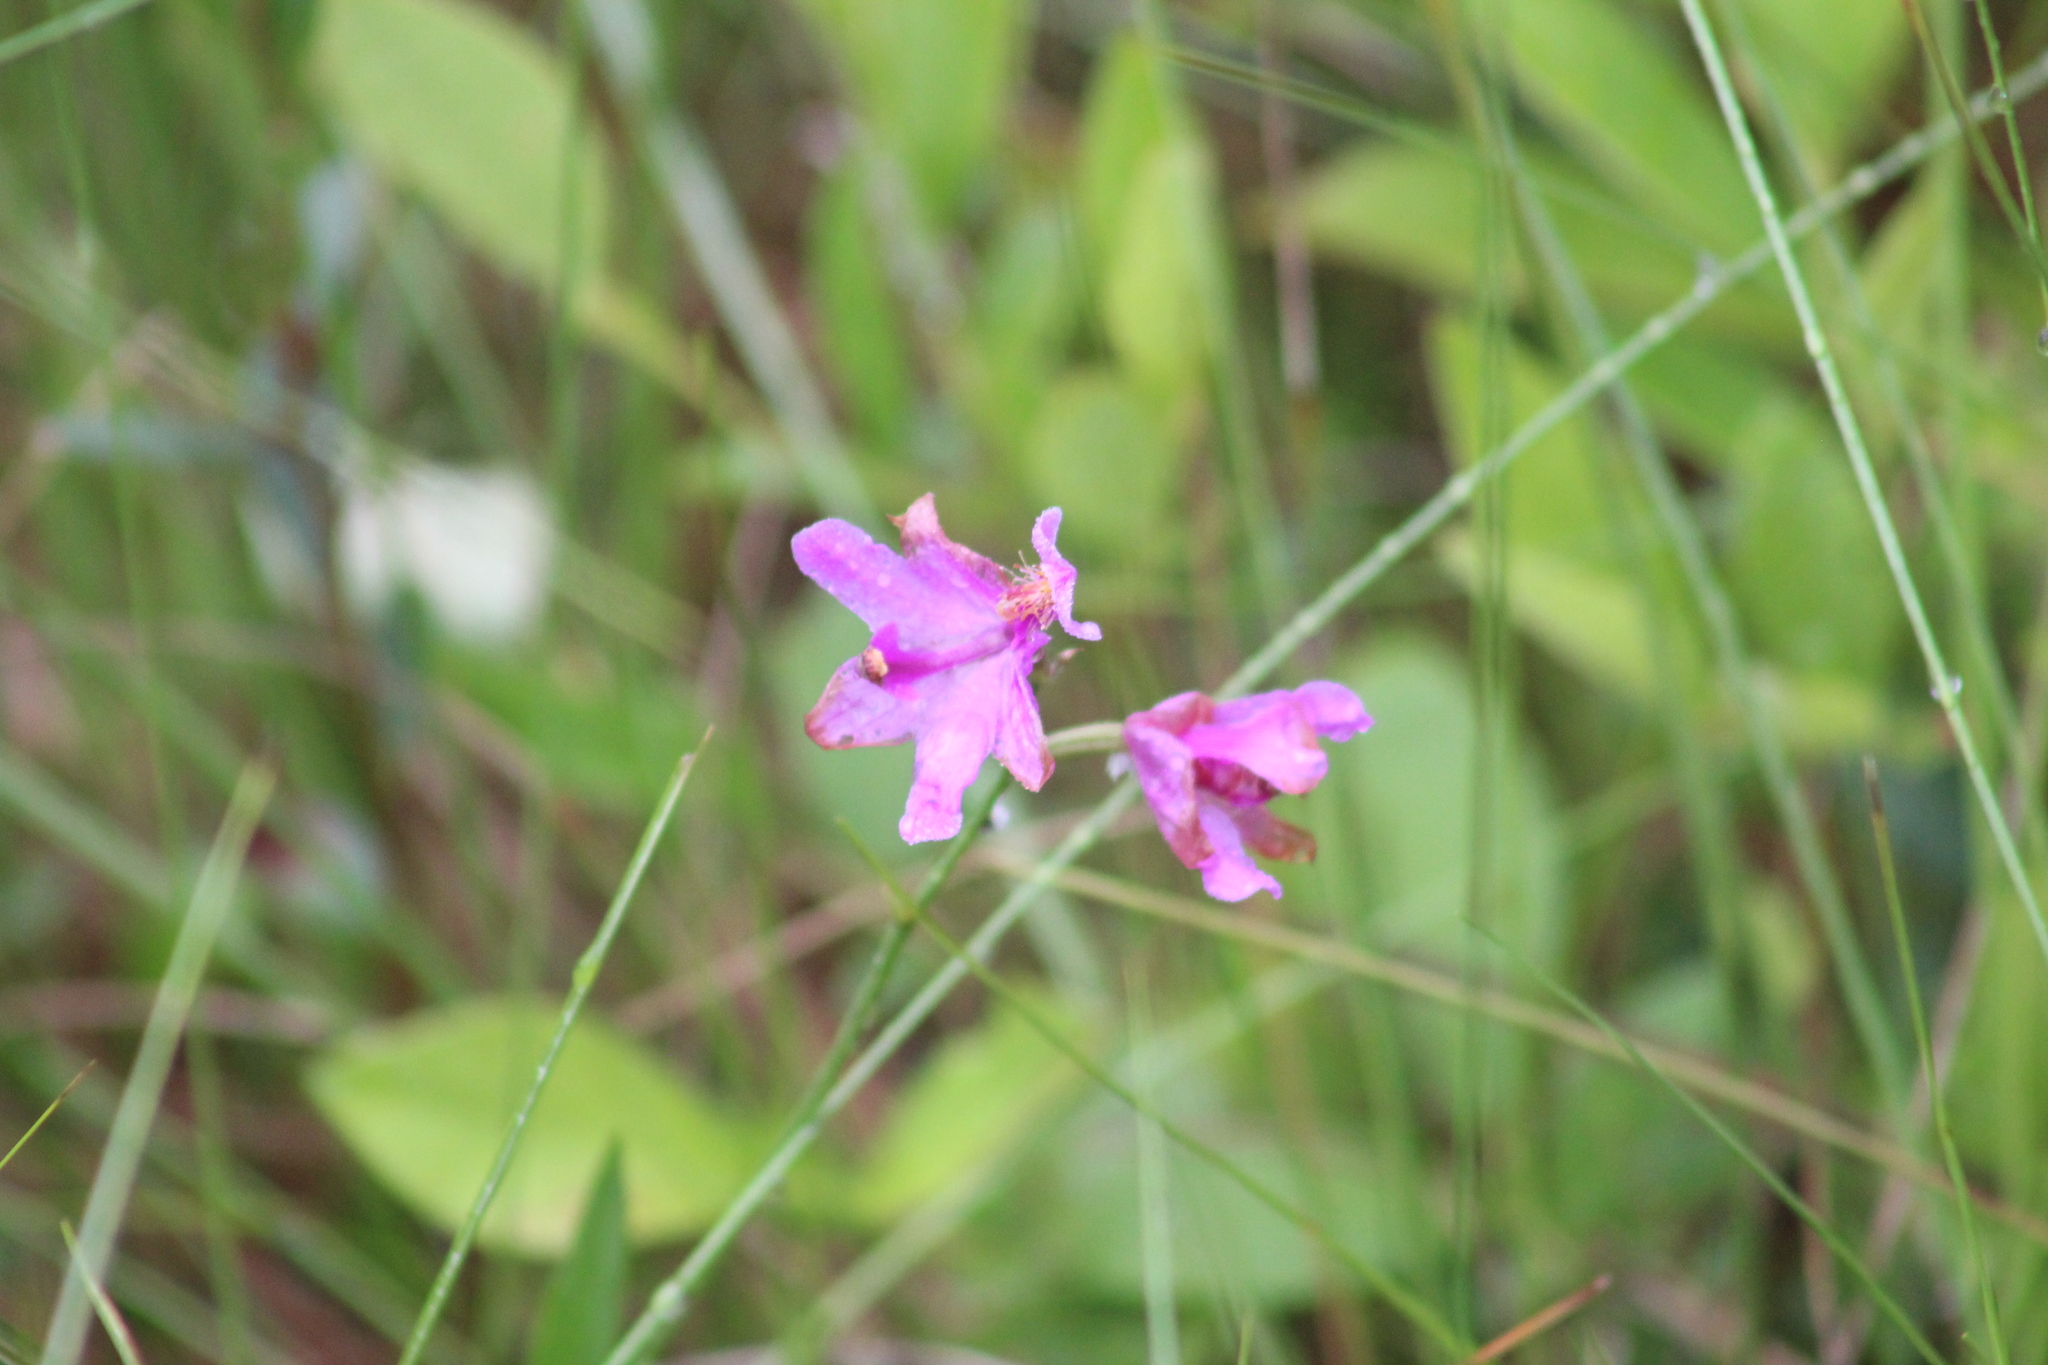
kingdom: Plantae
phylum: Tracheophyta
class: Liliopsida
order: Asparagales
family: Orchidaceae
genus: Calopogon
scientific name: Calopogon tuberosus
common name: Grass-pink
